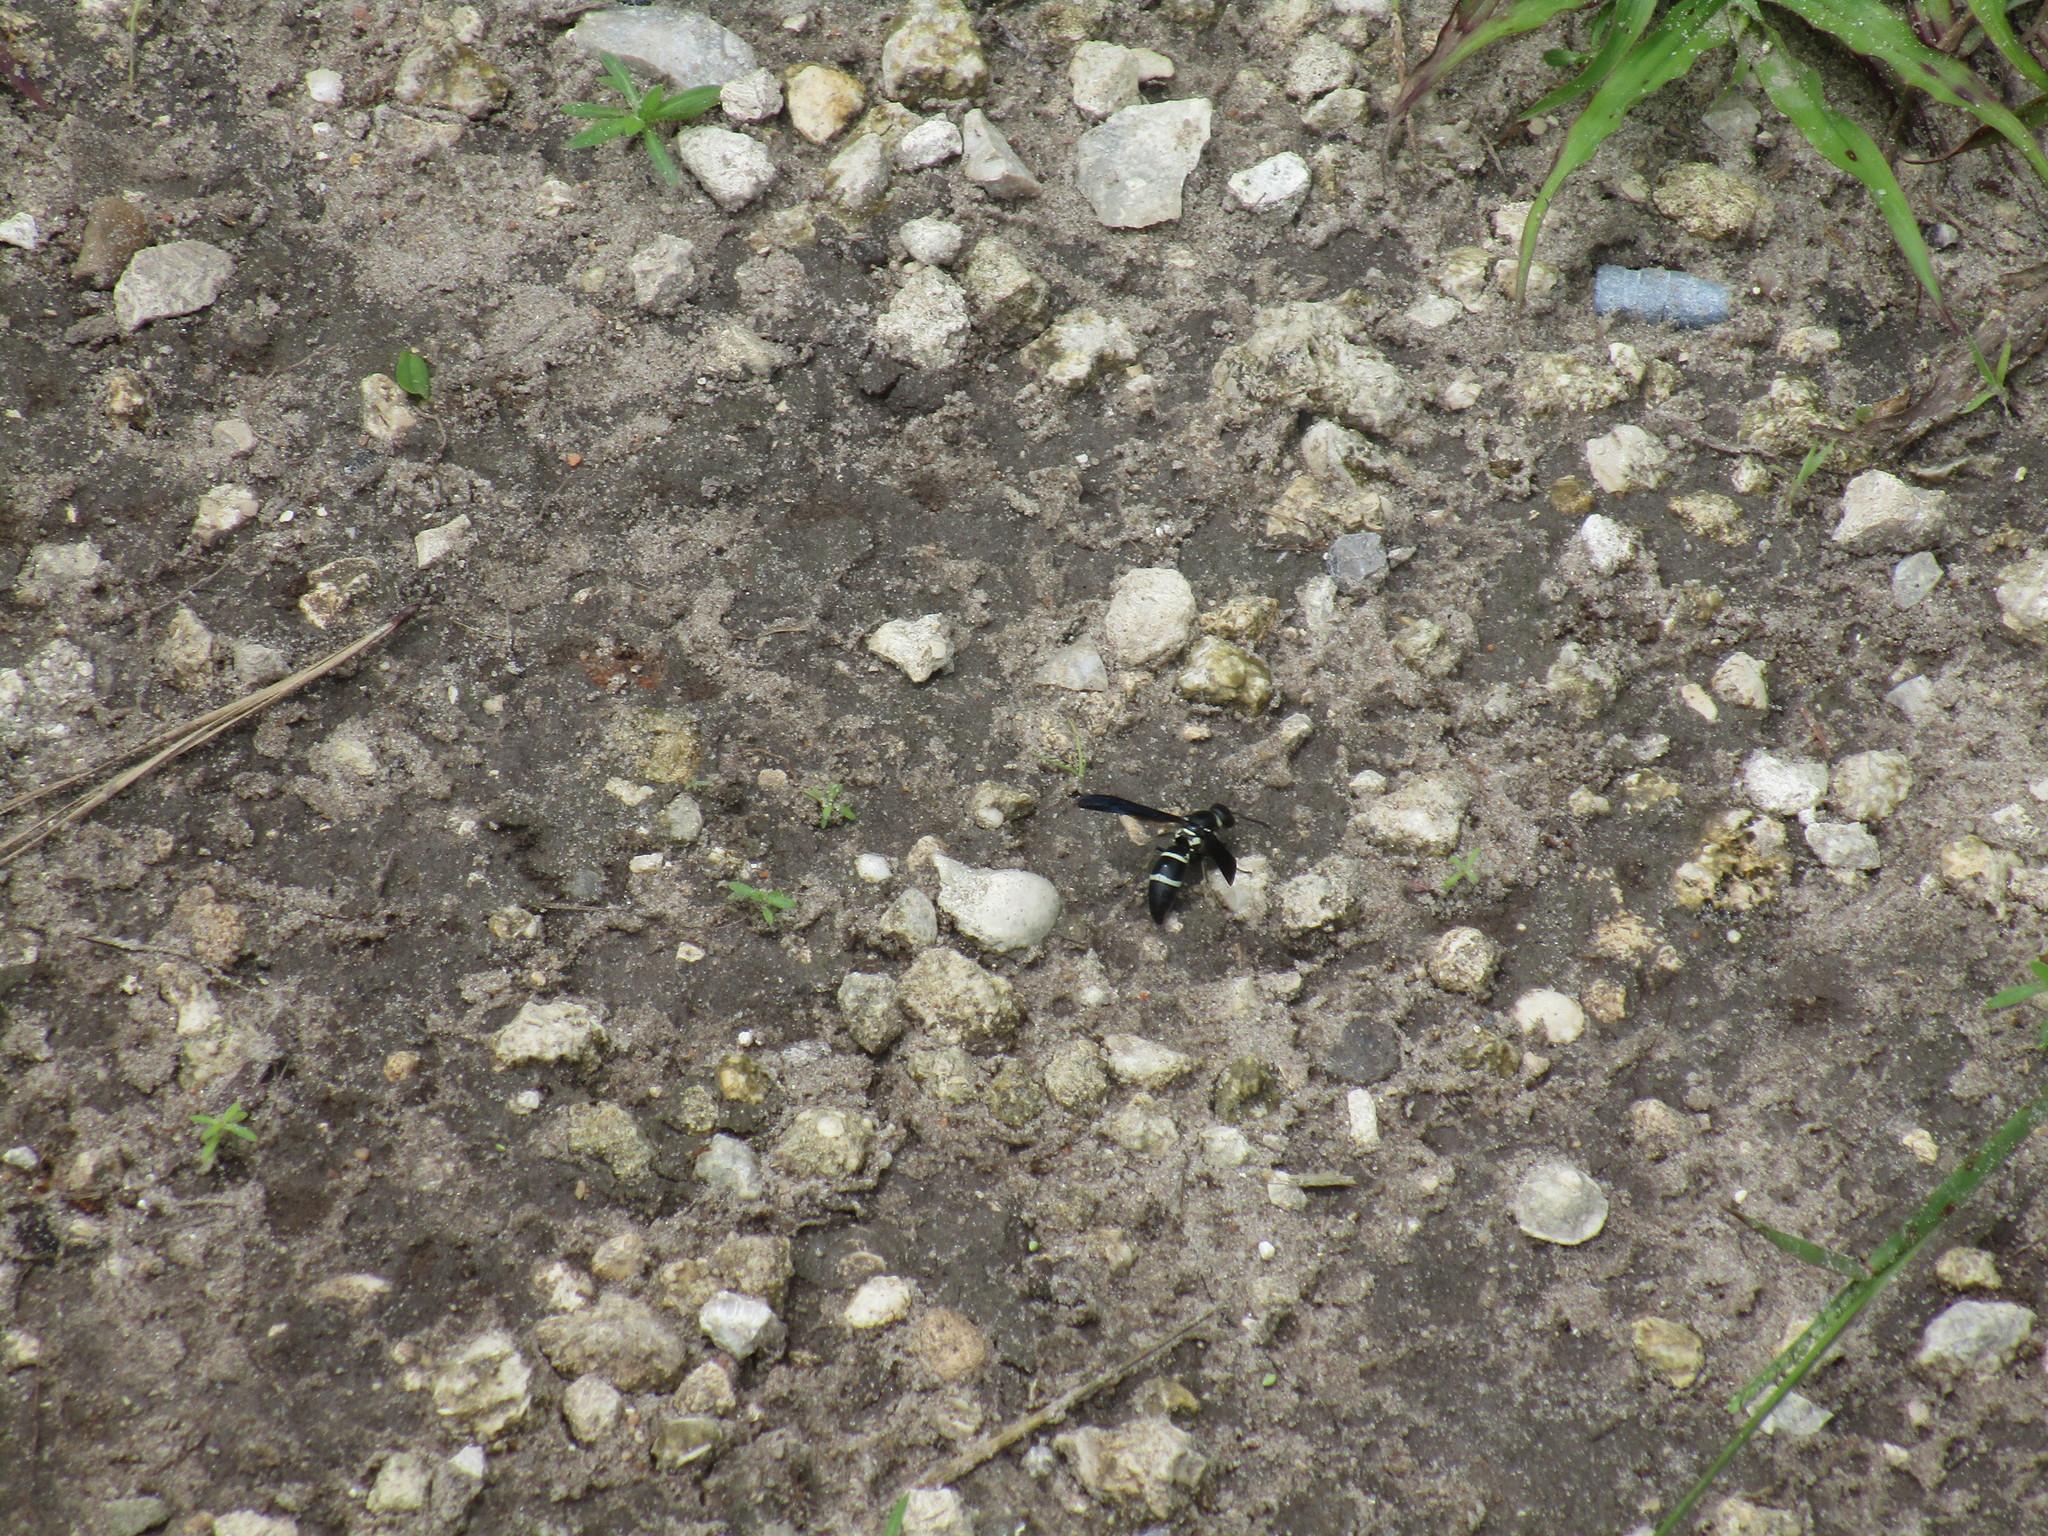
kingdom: Animalia
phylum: Arthropoda
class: Insecta
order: Hymenoptera
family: Eumenidae
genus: Pseudodynerus
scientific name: Pseudodynerus quadrisectus
